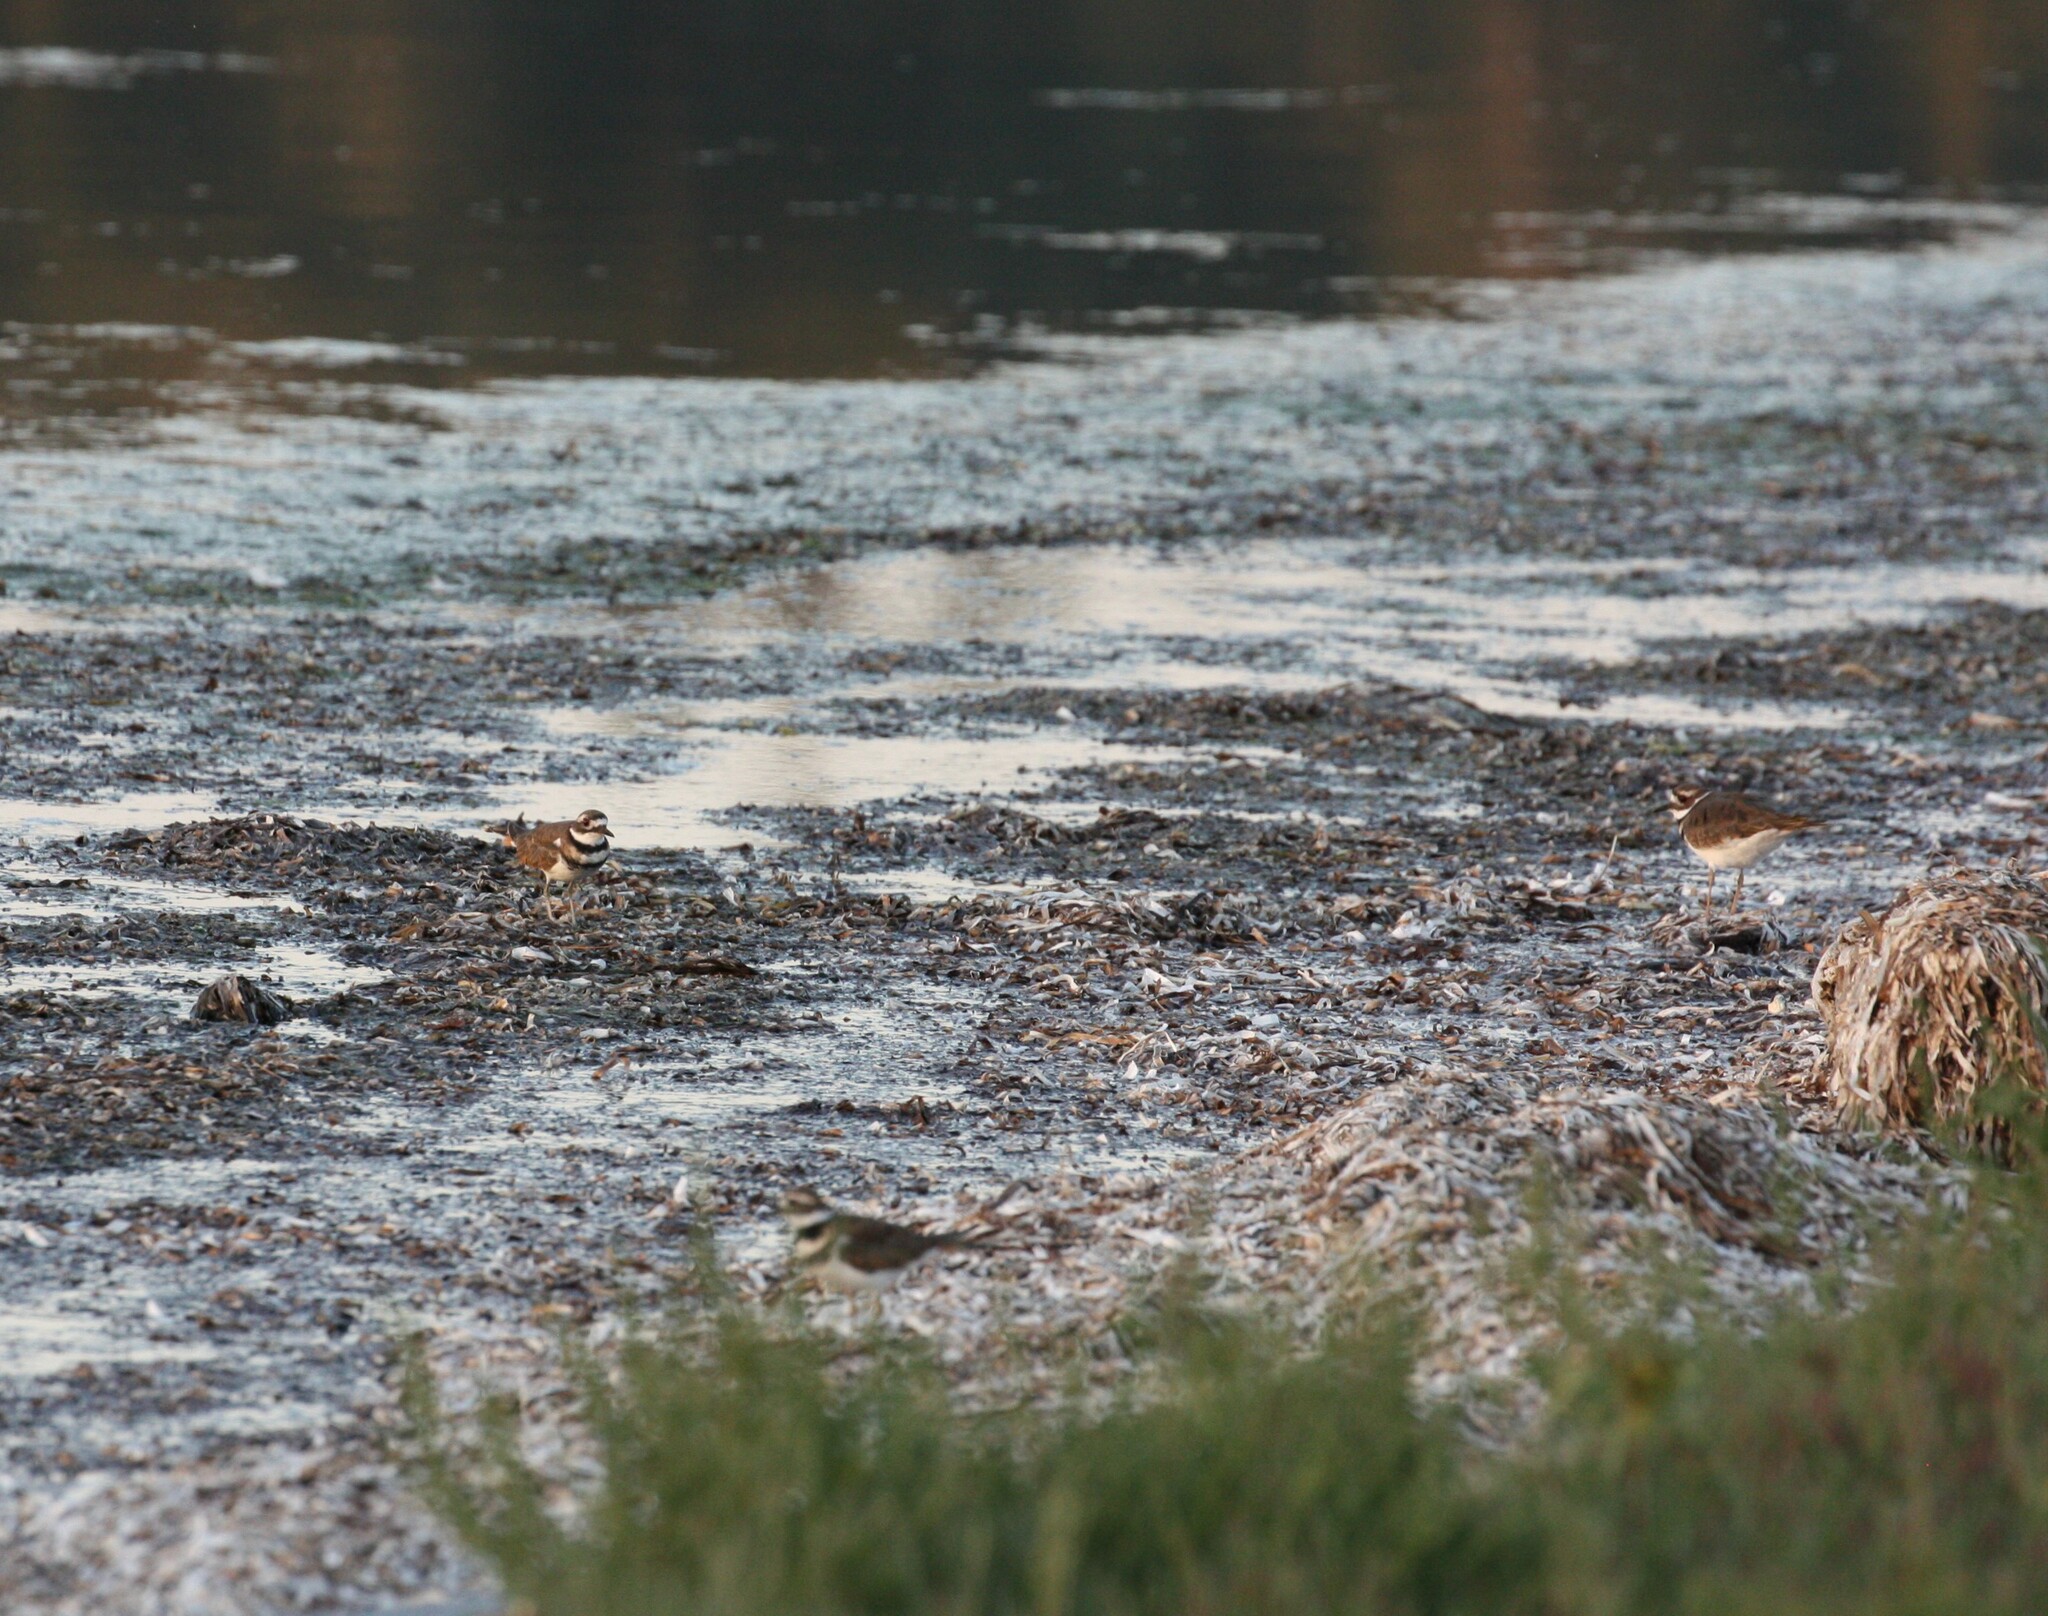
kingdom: Animalia
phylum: Chordata
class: Aves
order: Charadriiformes
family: Charadriidae
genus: Charadrius
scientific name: Charadrius vociferus
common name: Killdeer
